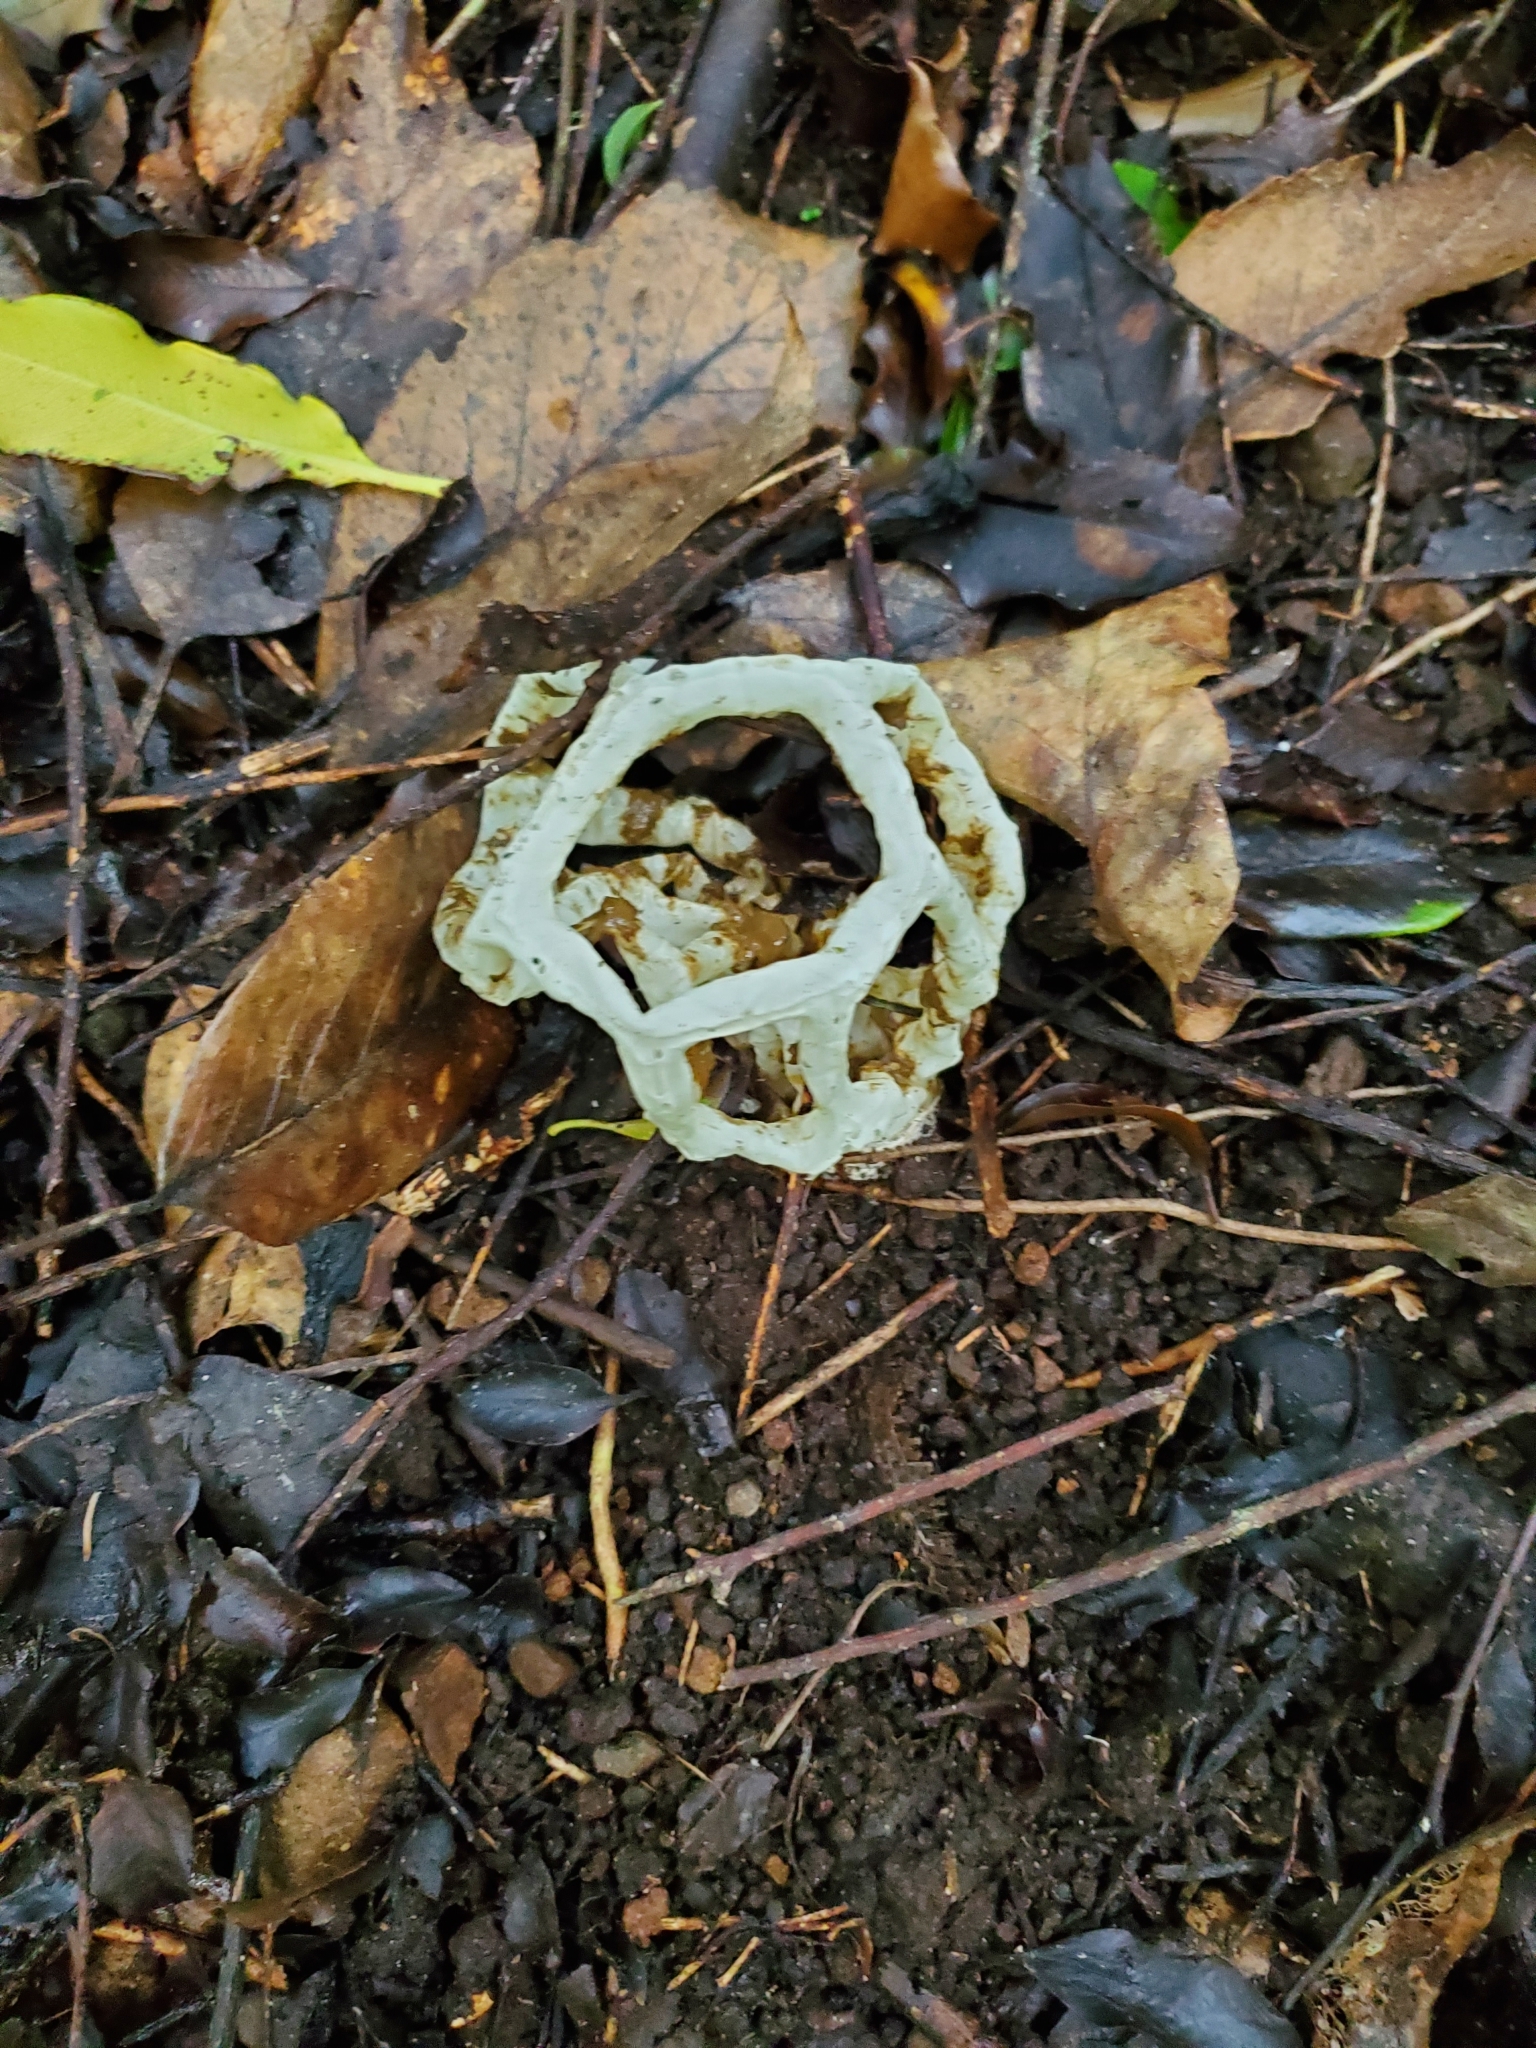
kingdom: Fungi
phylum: Basidiomycota
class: Agaricomycetes
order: Phallales
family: Phallaceae
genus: Ileodictyon
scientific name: Ileodictyon cibarium
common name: Basket fungus
